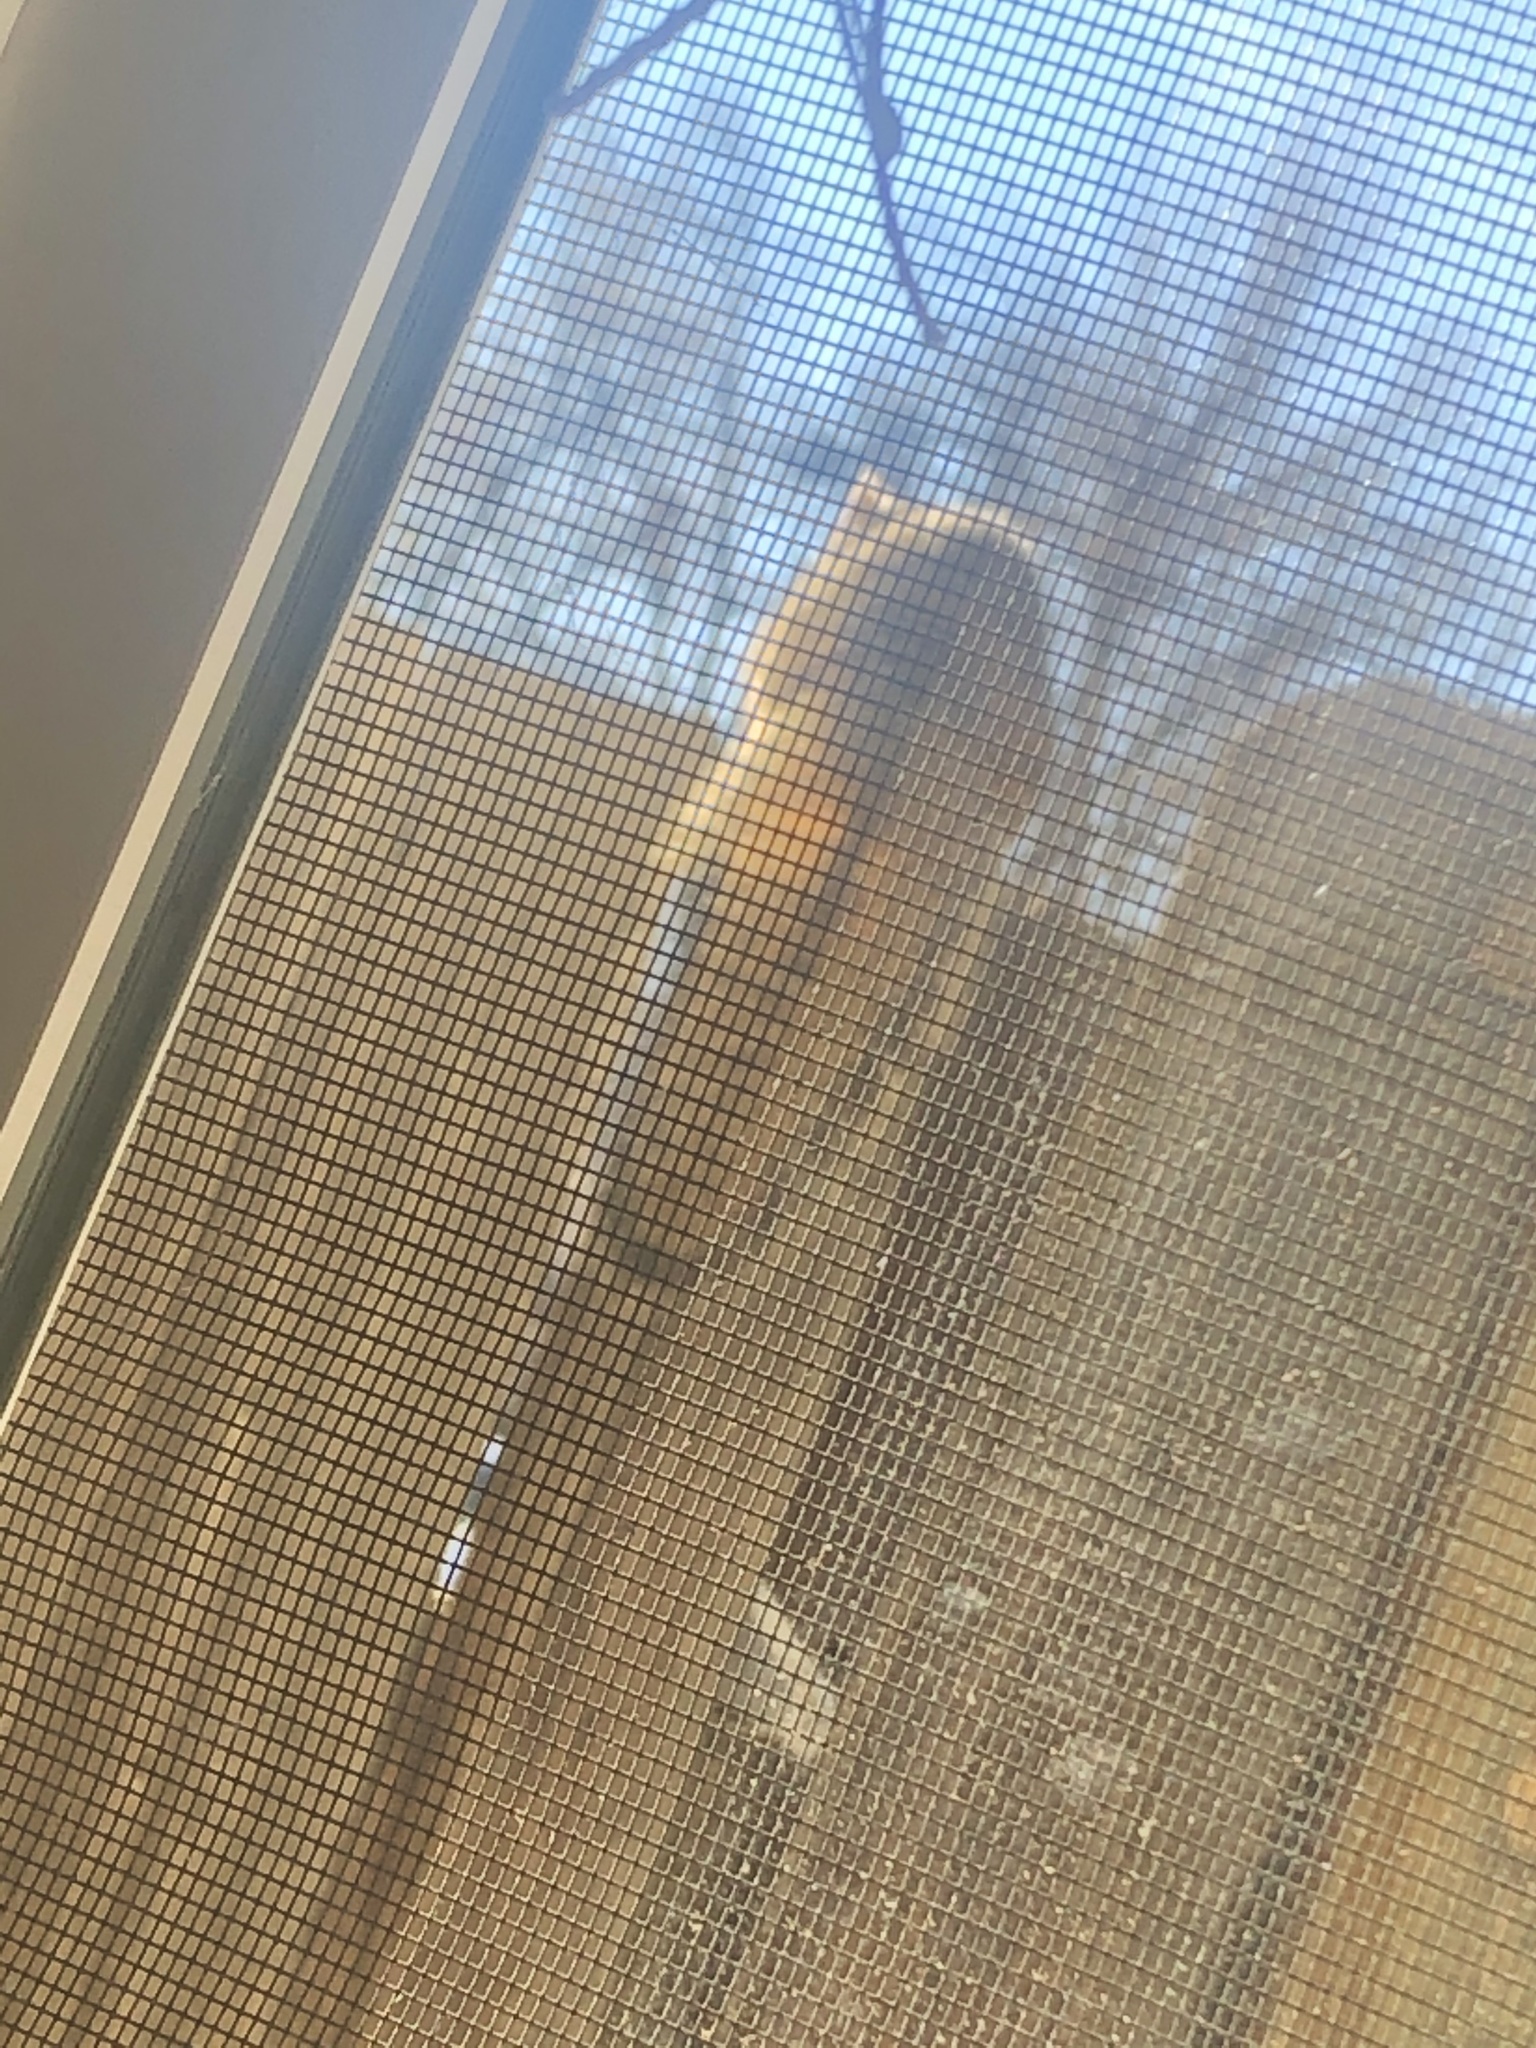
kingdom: Animalia
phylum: Chordata
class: Mammalia
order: Rodentia
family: Sciuridae
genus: Sciurus
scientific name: Sciurus niger
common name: Fox squirrel
